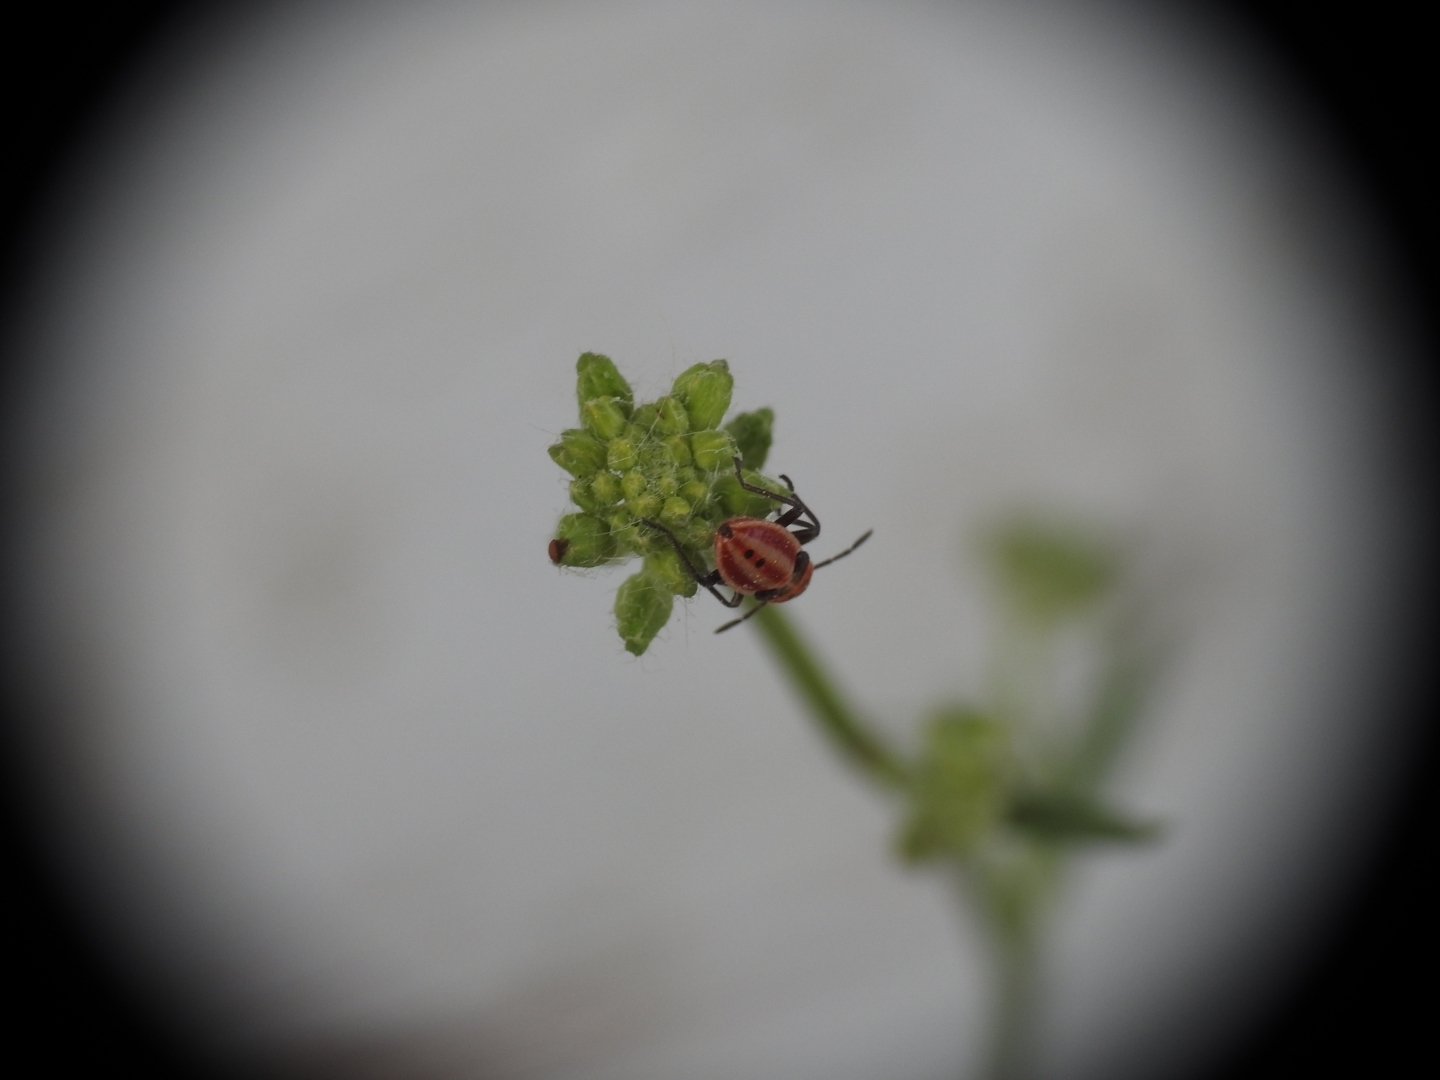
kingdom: Animalia
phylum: Arthropoda
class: Insecta
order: Hemiptera
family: Lygaeidae
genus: Lygaeus
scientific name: Lygaeus creticus
